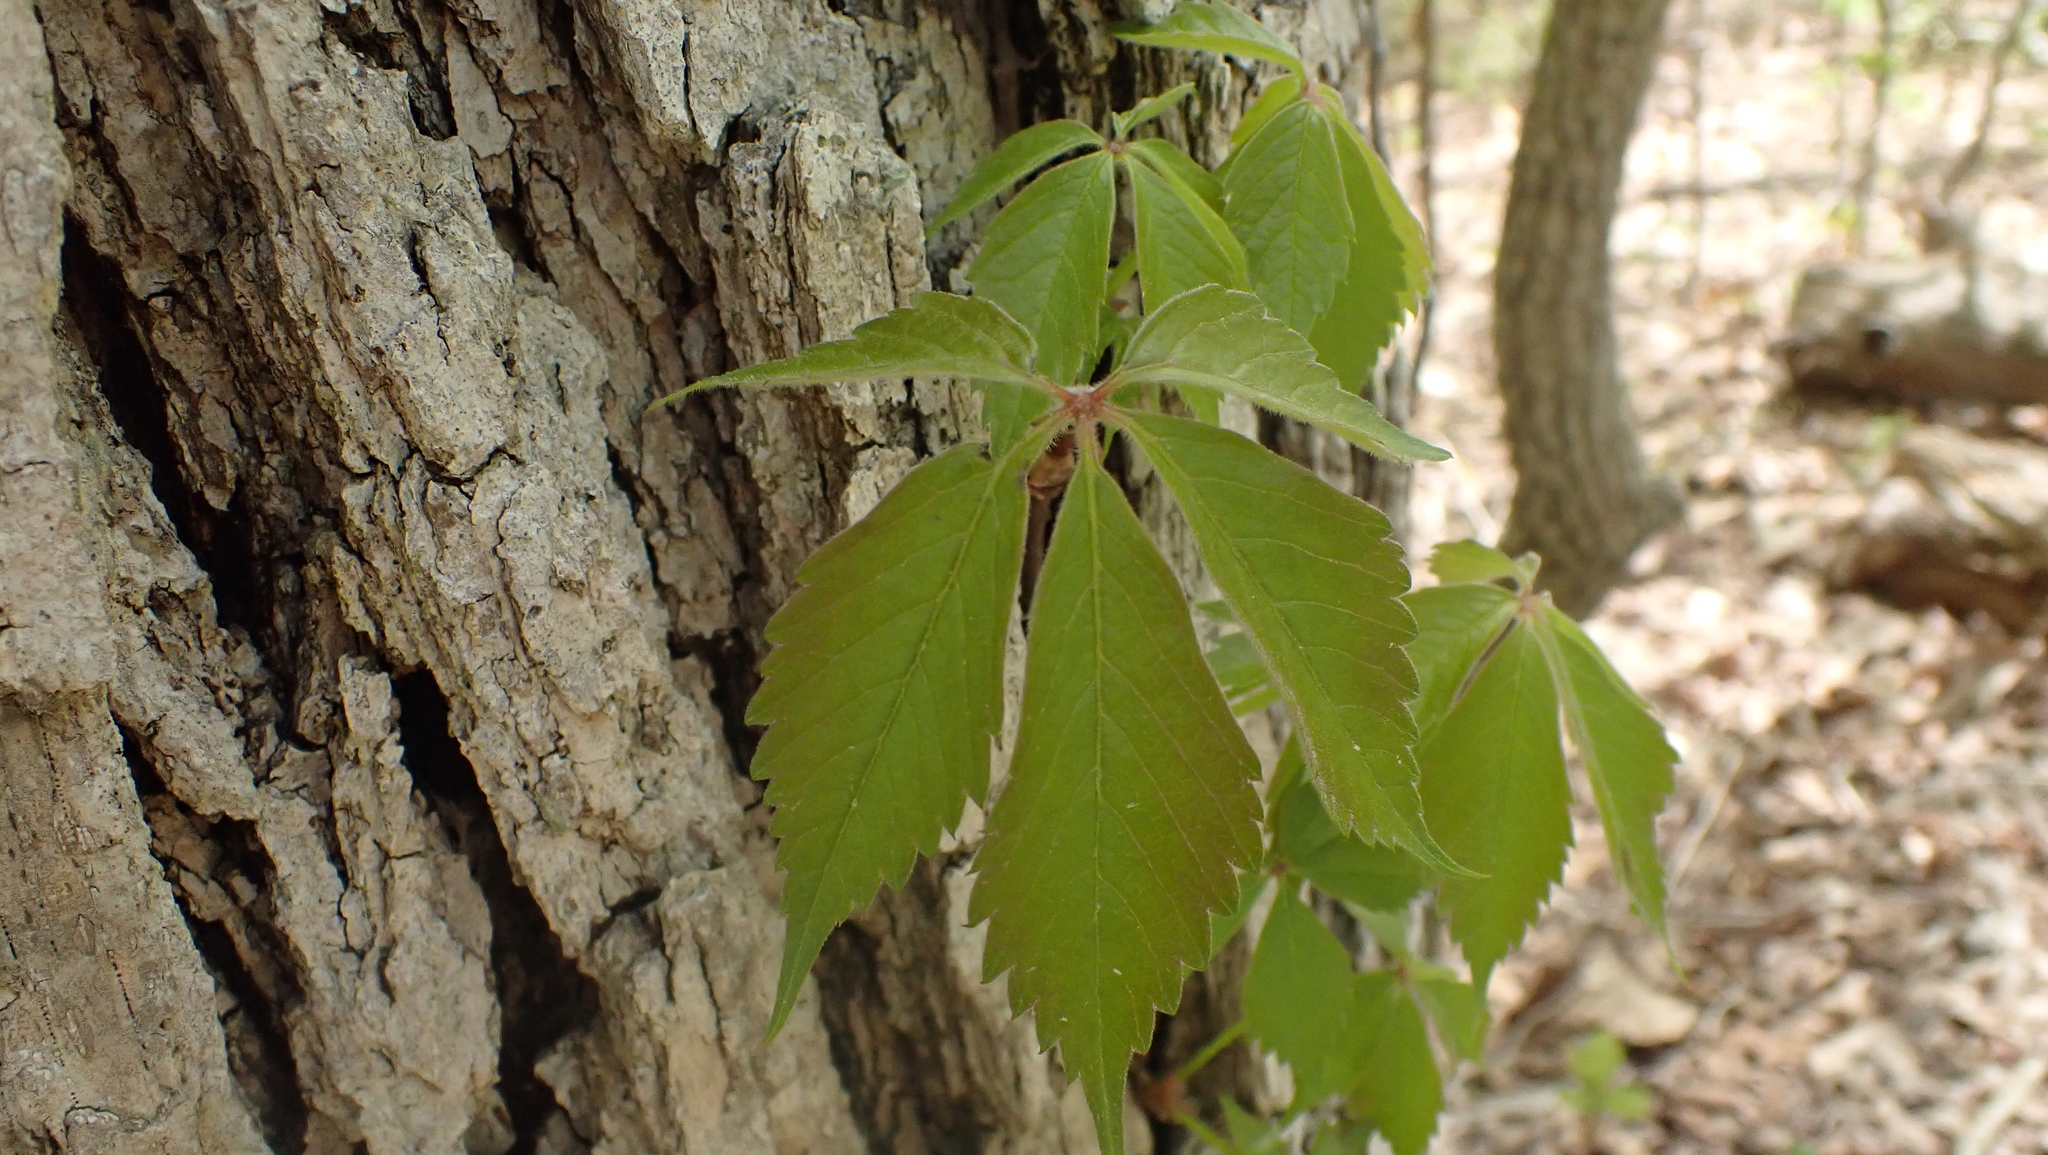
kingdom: Plantae
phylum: Tracheophyta
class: Magnoliopsida
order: Vitales
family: Vitaceae
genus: Parthenocissus
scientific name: Parthenocissus quinquefolia
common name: Virginia-creeper
